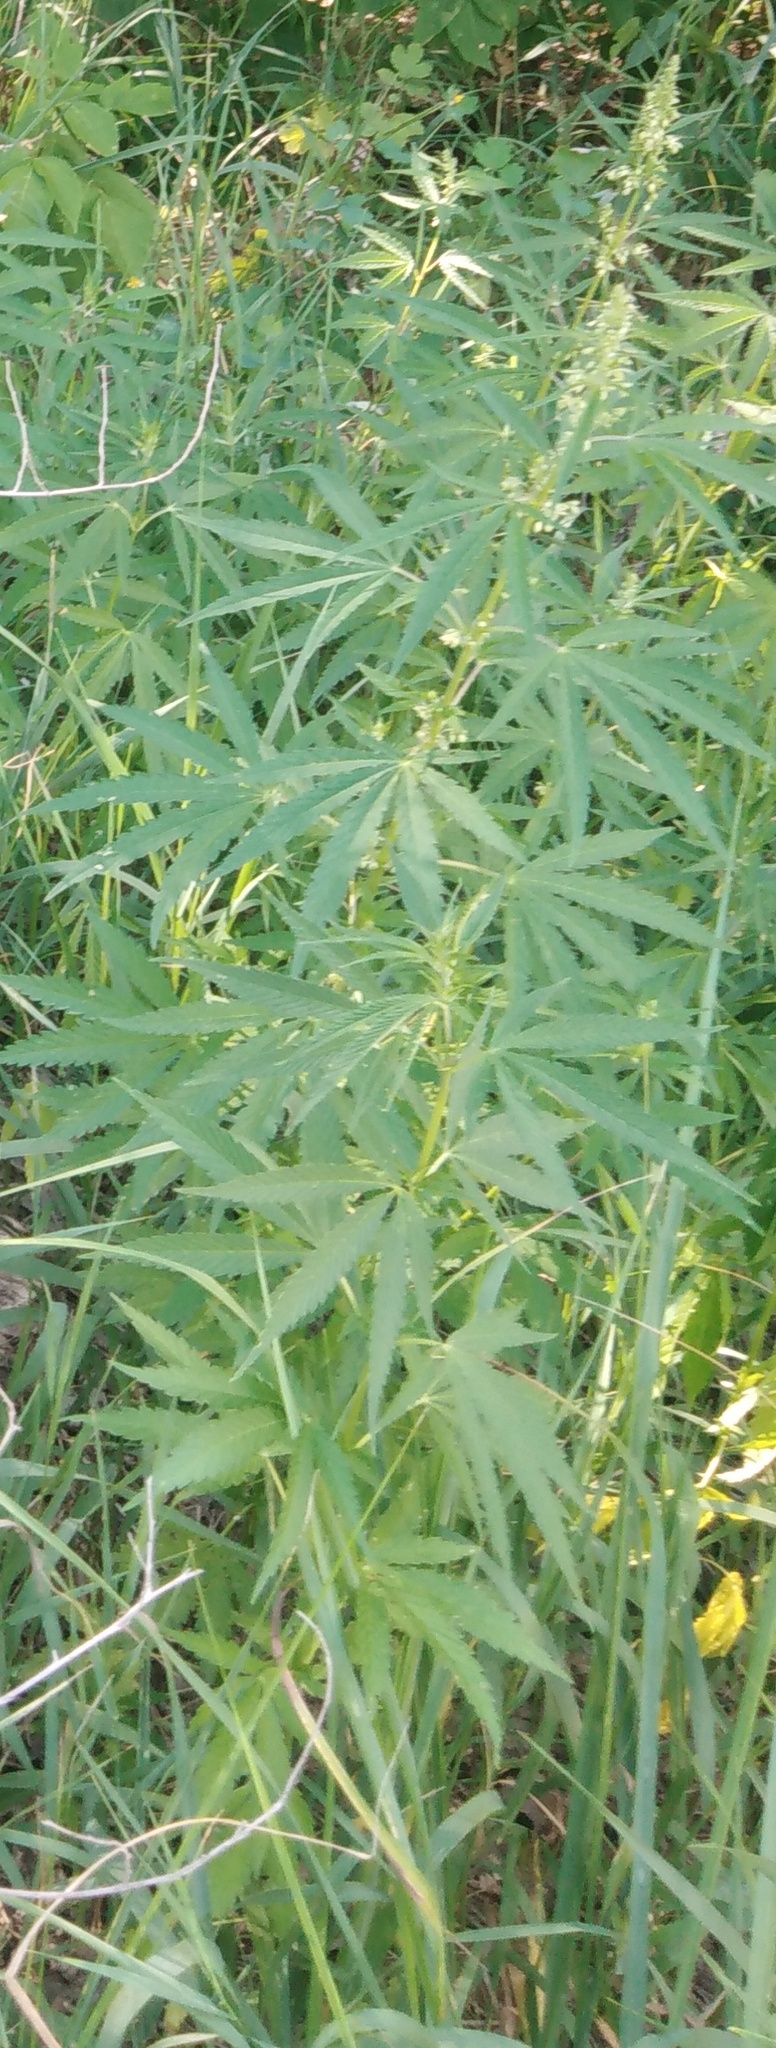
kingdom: Plantae
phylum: Tracheophyta
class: Magnoliopsida
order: Rosales
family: Cannabaceae
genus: Cannabis
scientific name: Cannabis sativa
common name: Hemp
